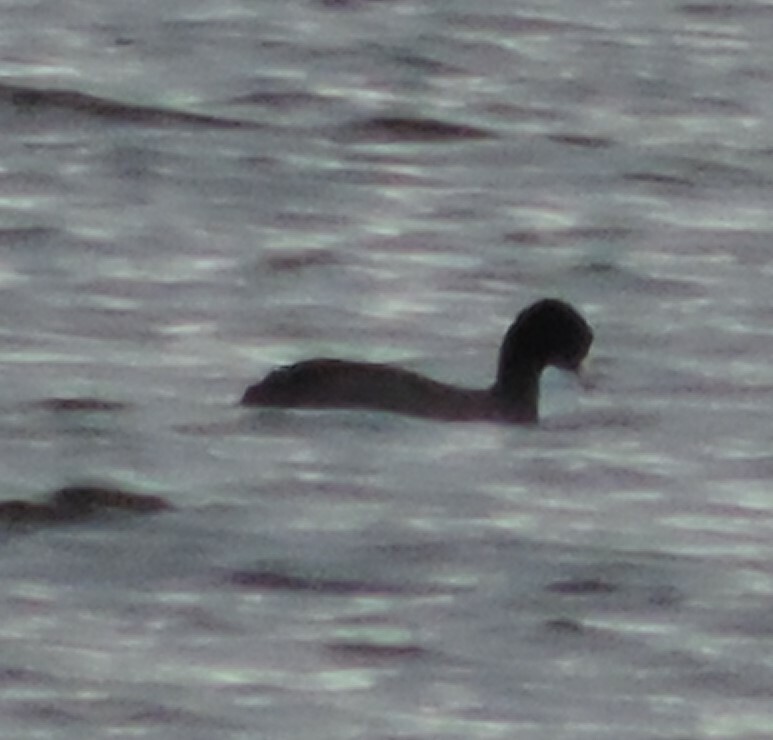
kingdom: Animalia
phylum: Chordata
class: Aves
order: Gruiformes
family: Rallidae
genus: Fulica
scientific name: Fulica americana
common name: American coot
